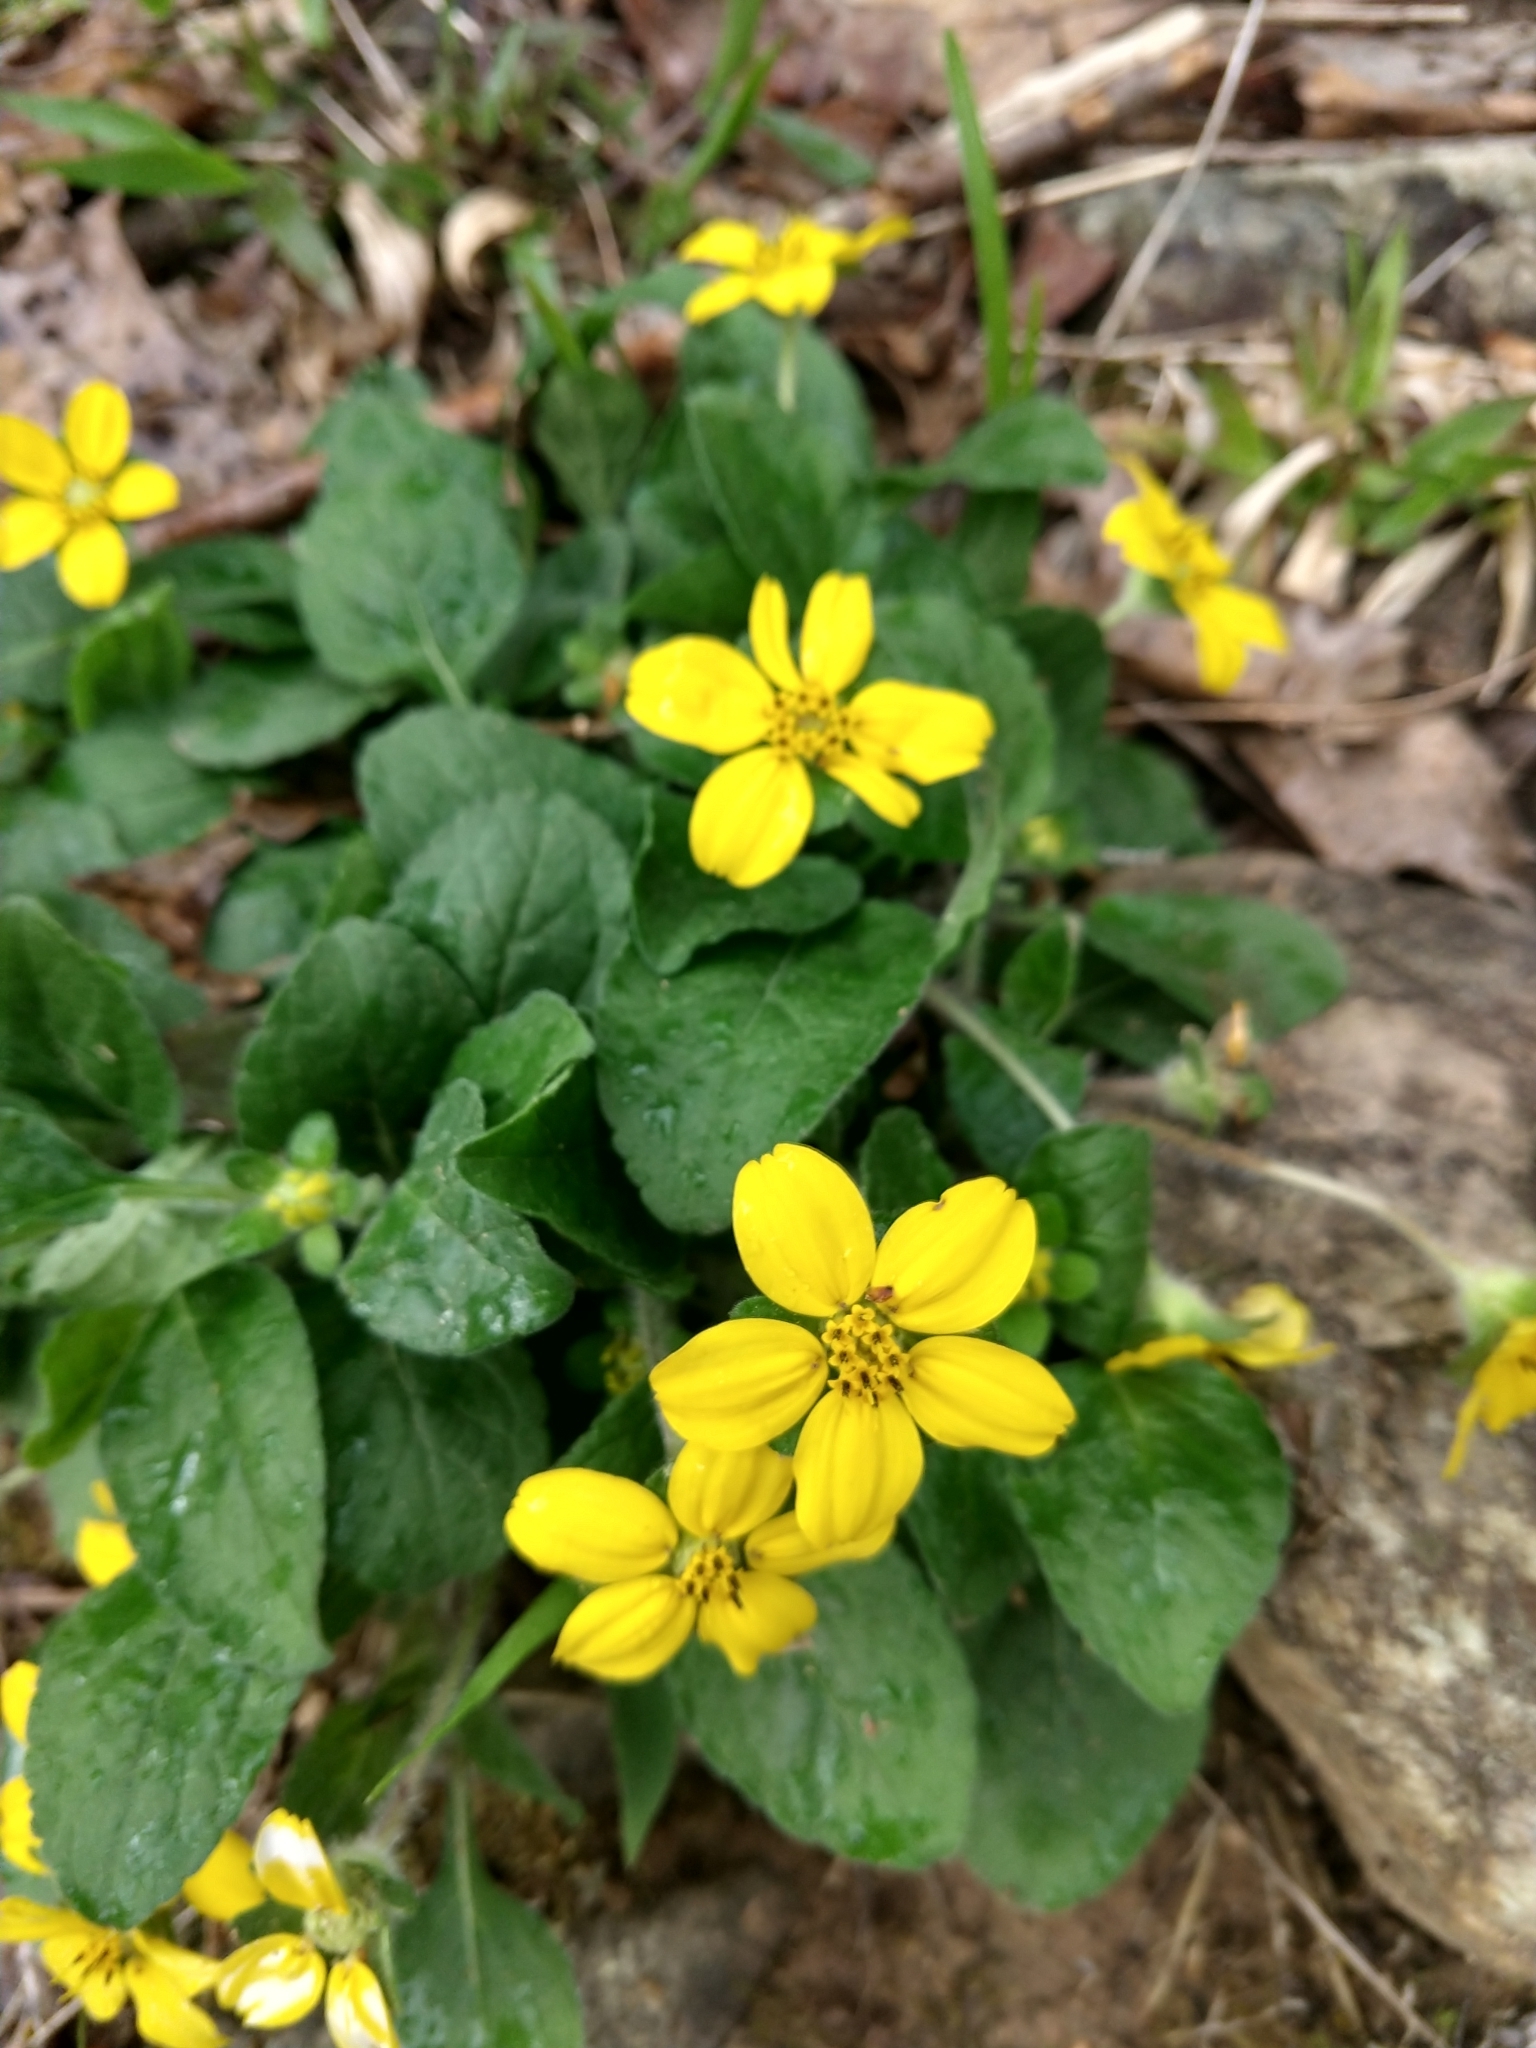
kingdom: Plantae
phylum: Tracheophyta
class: Magnoliopsida
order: Asterales
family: Asteraceae
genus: Chrysogonum
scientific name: Chrysogonum virginianum
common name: Golden-knee
